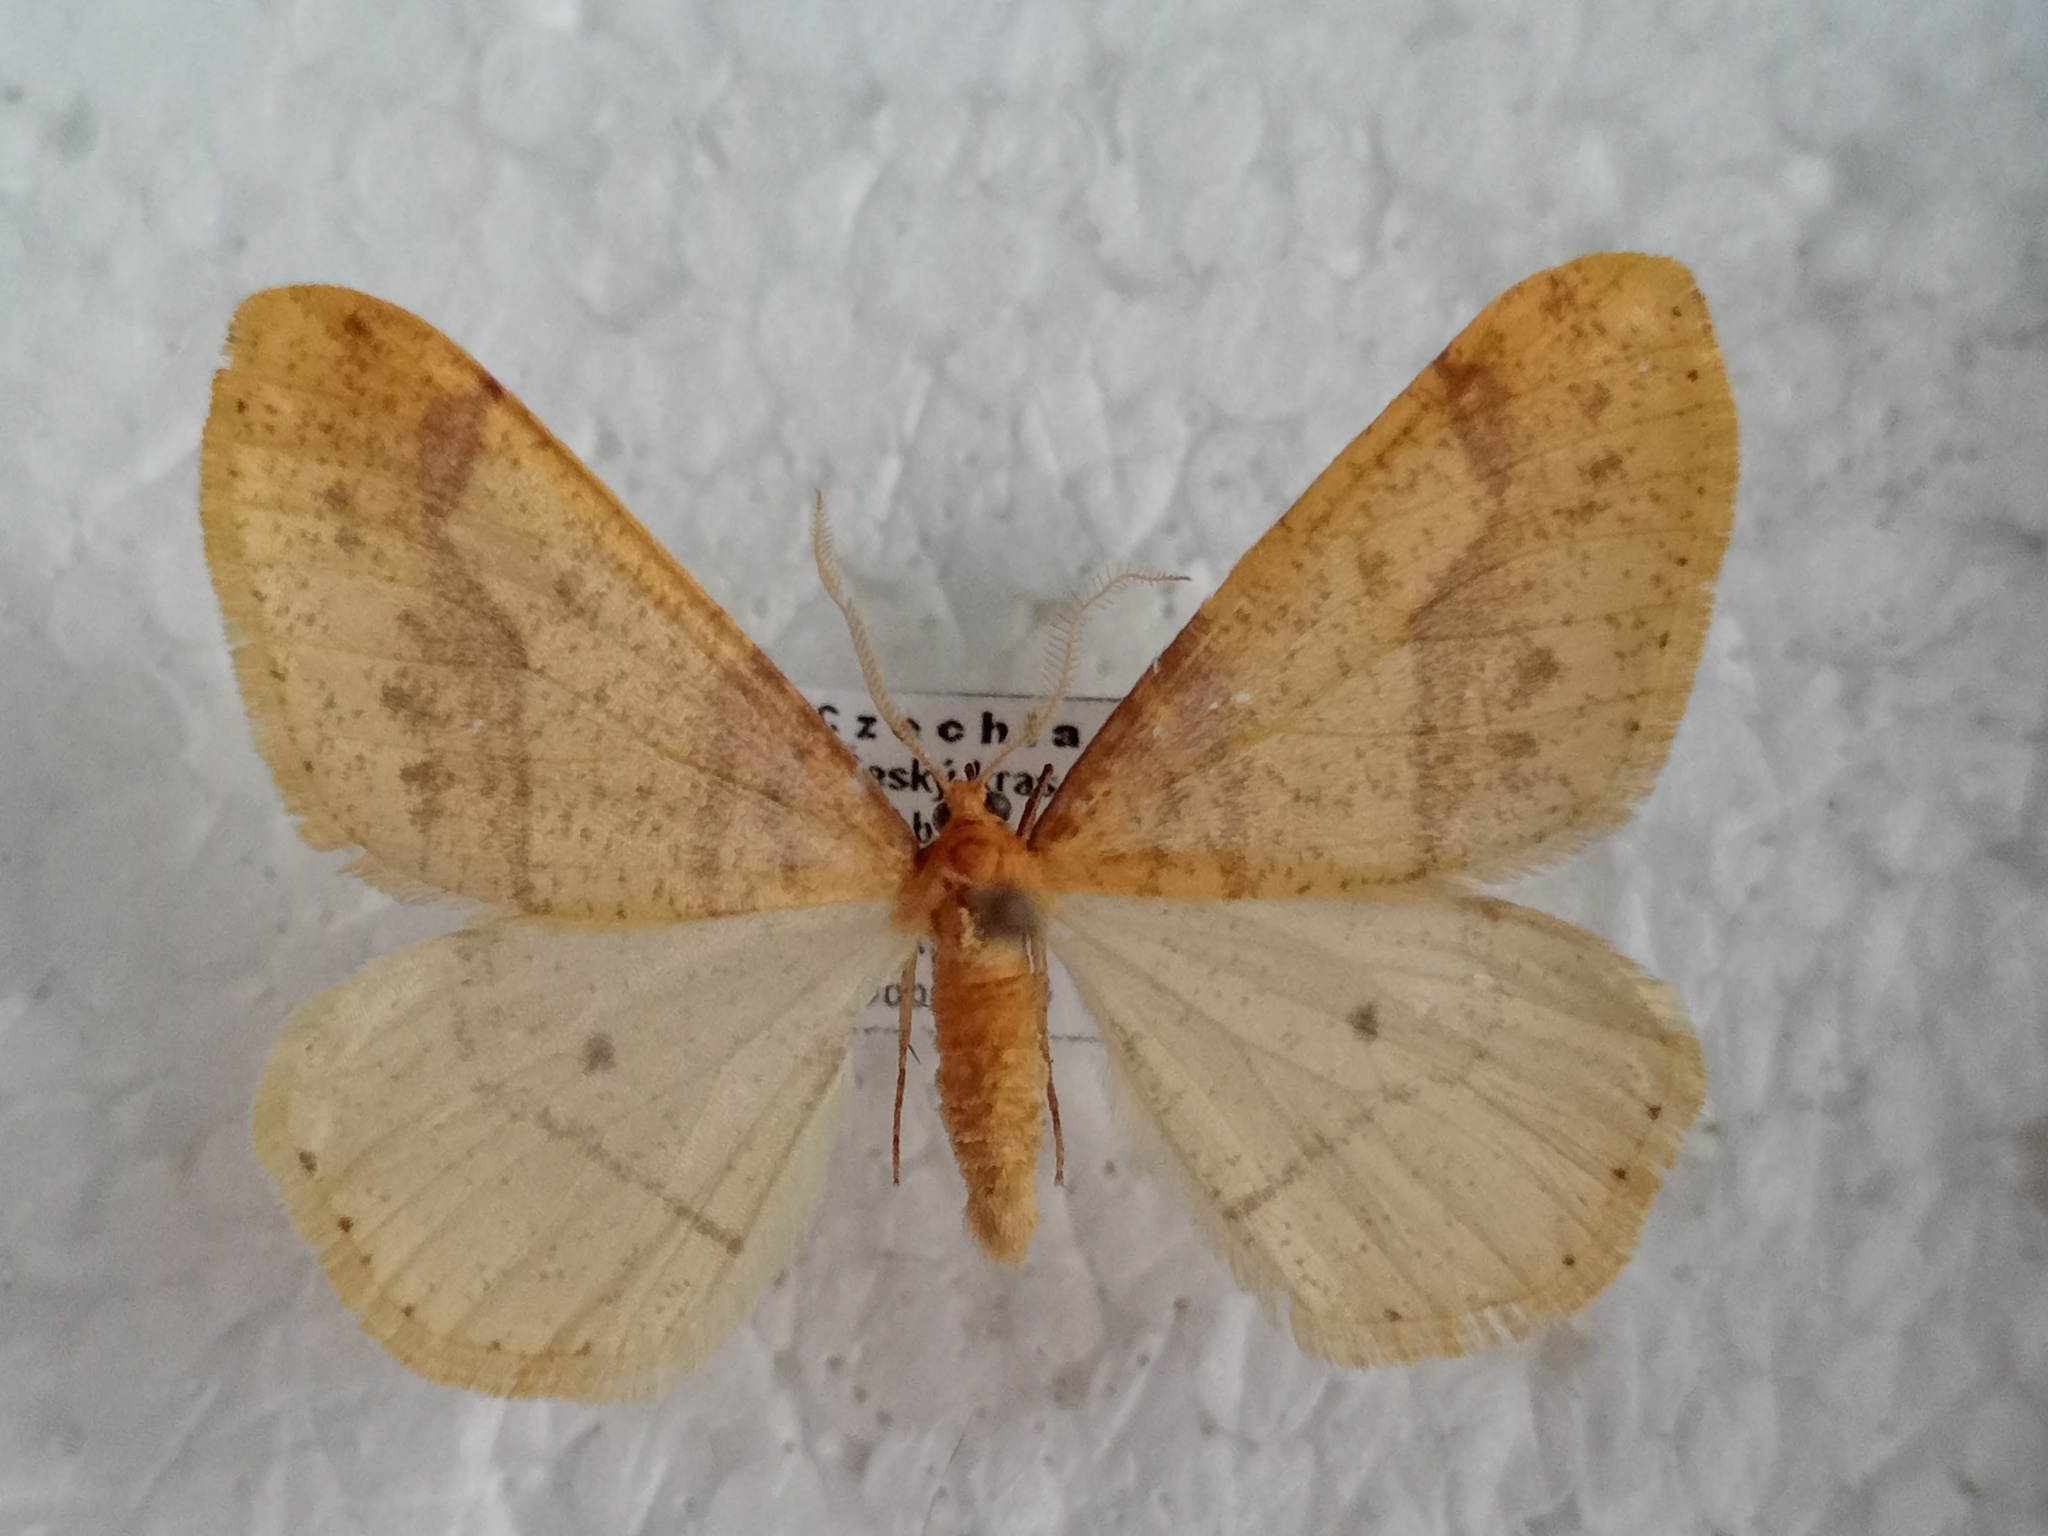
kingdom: Animalia
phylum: Arthropoda
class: Insecta
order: Lepidoptera
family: Geometridae
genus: Agriopis
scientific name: Agriopis aurantiaria
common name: Scarce umber
